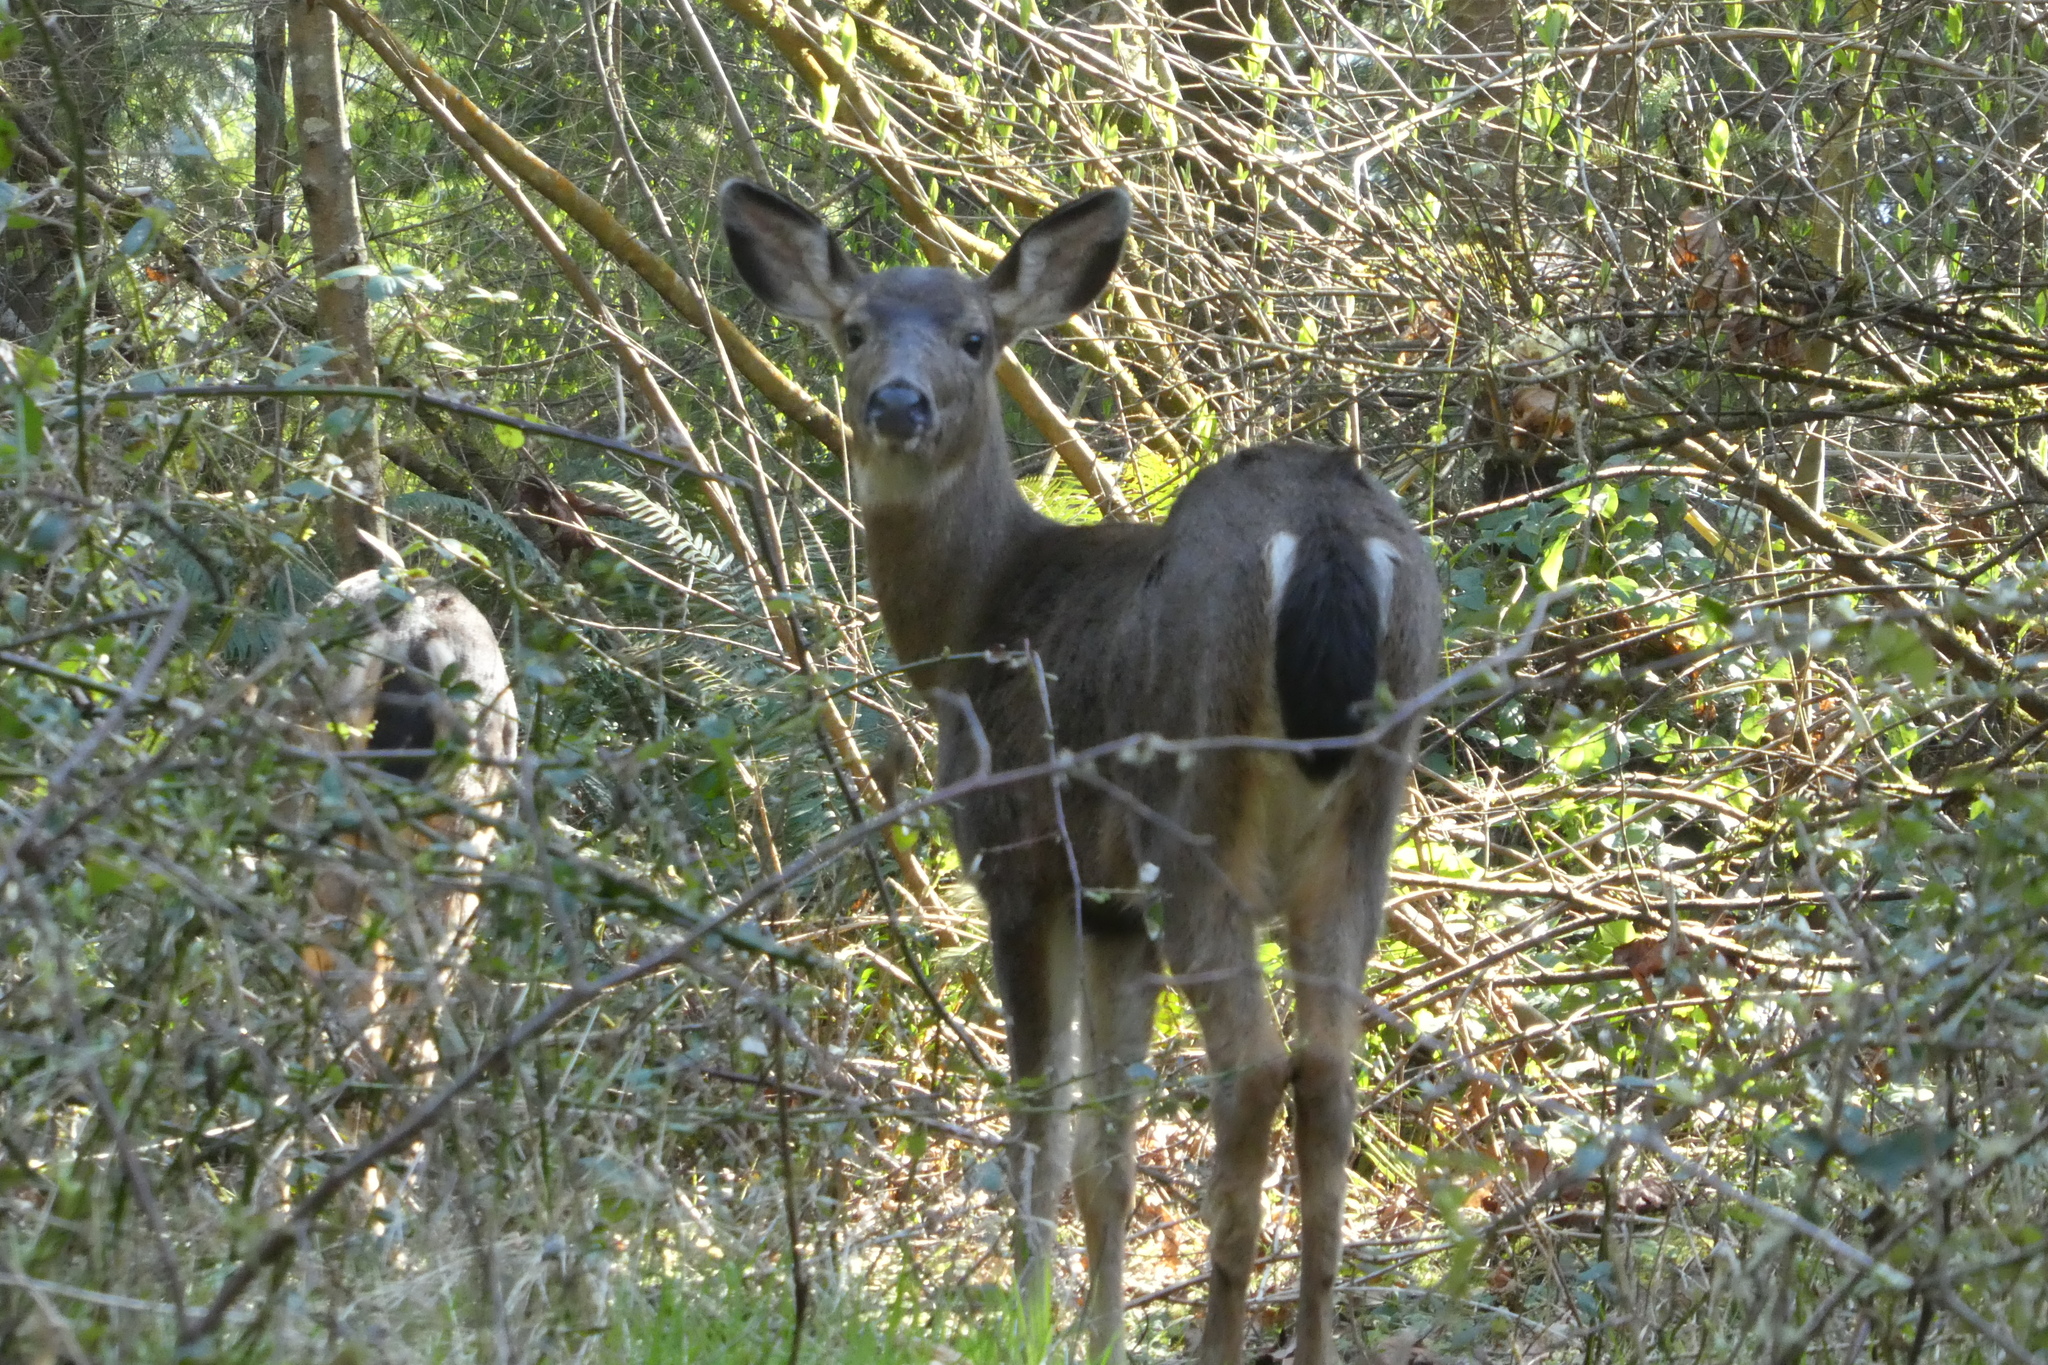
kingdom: Animalia
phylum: Chordata
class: Mammalia
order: Artiodactyla
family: Cervidae
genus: Odocoileus
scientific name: Odocoileus hemionus
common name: Mule deer
